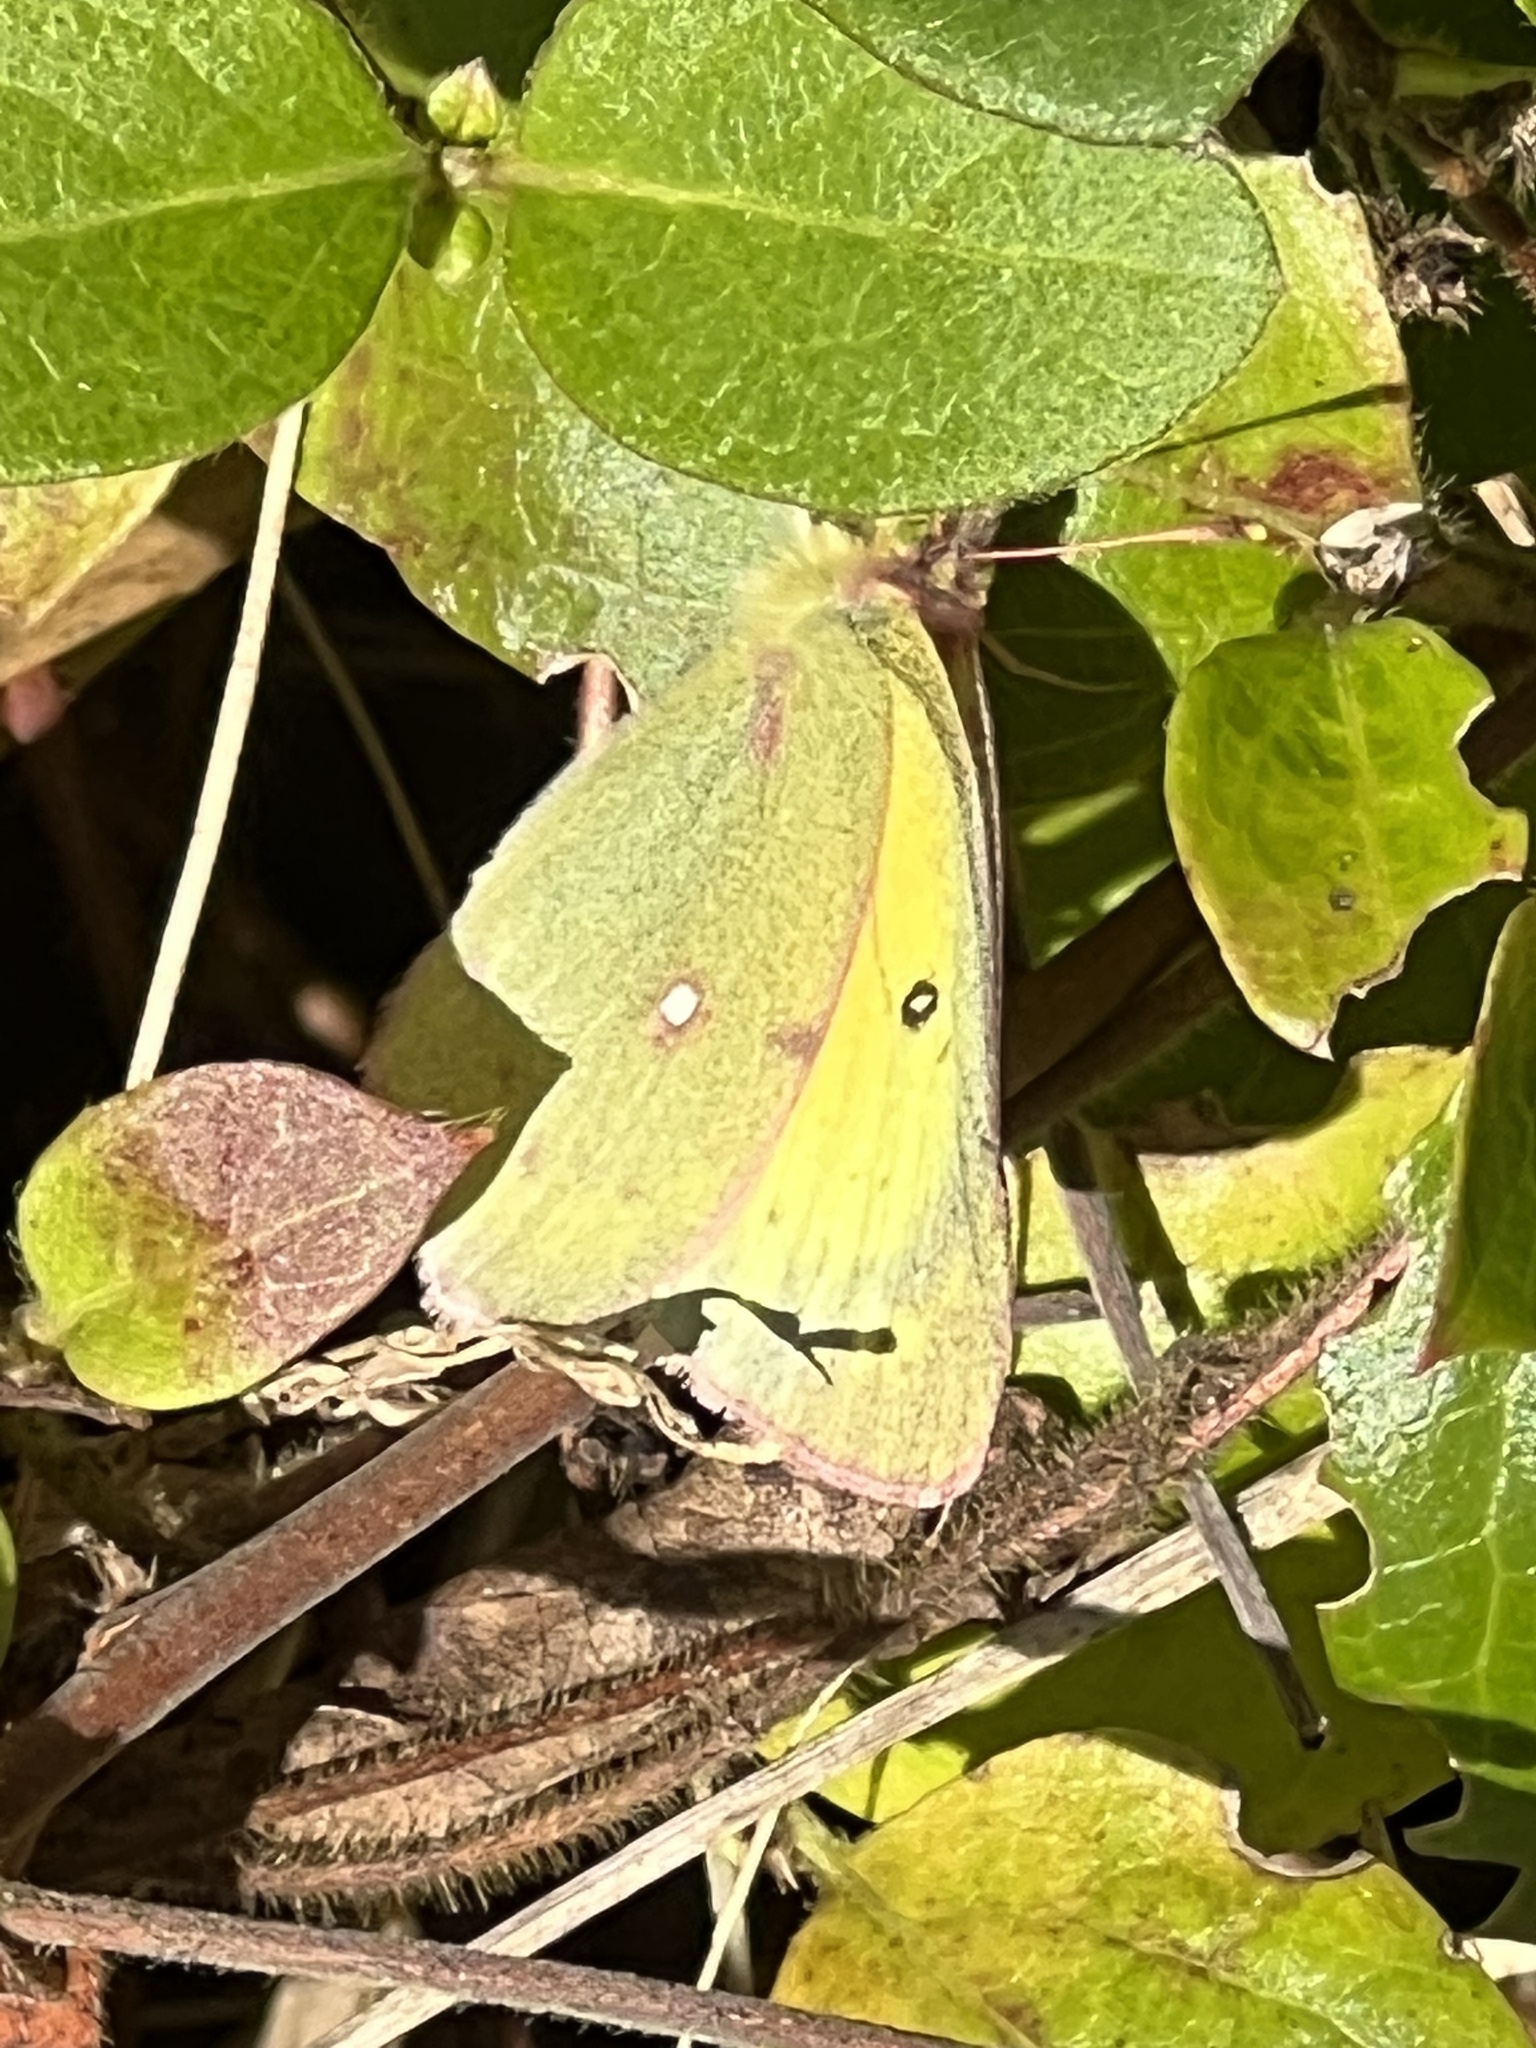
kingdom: Animalia
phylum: Arthropoda
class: Insecta
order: Lepidoptera
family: Pieridae
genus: Colias
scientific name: Colias eurytheme
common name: Alfalfa butterfly
